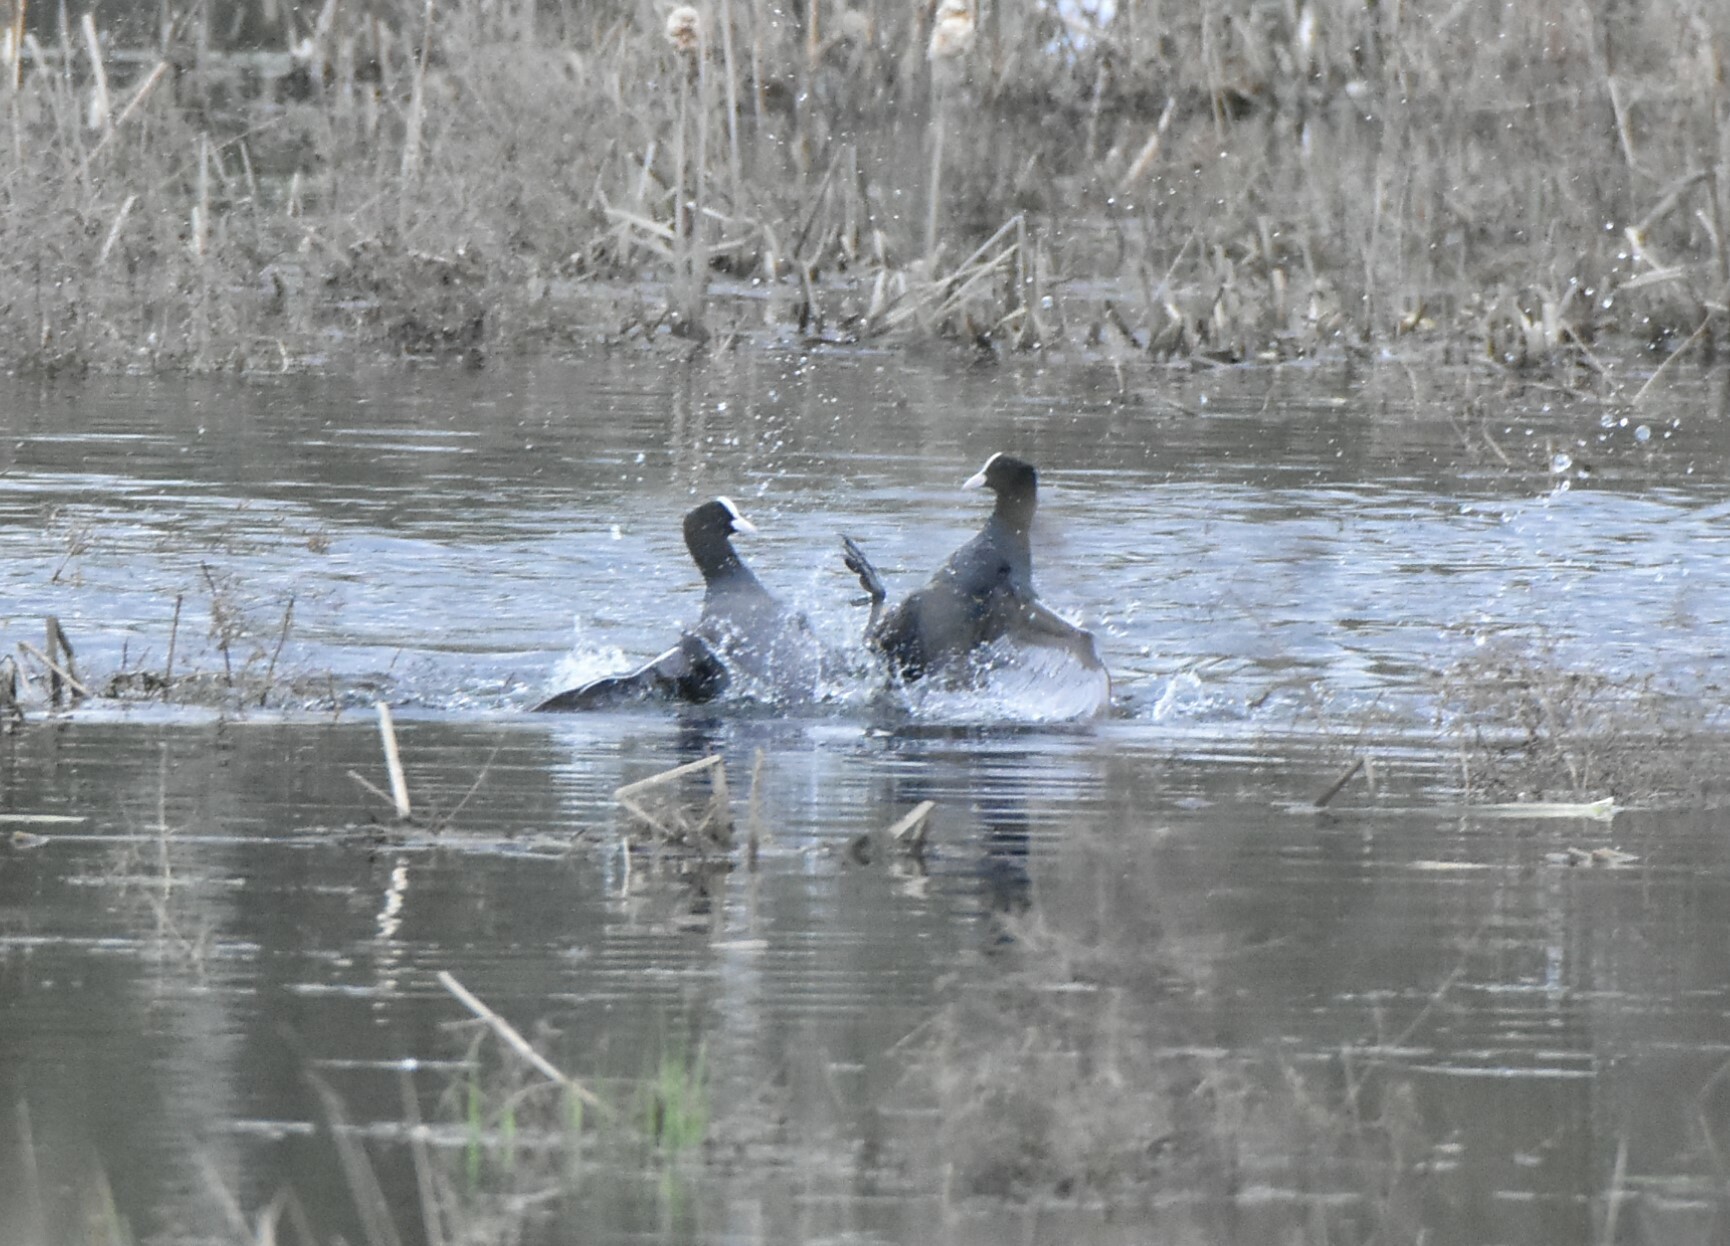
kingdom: Animalia
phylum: Chordata
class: Aves
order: Gruiformes
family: Rallidae
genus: Fulica
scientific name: Fulica atra
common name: Eurasian coot
